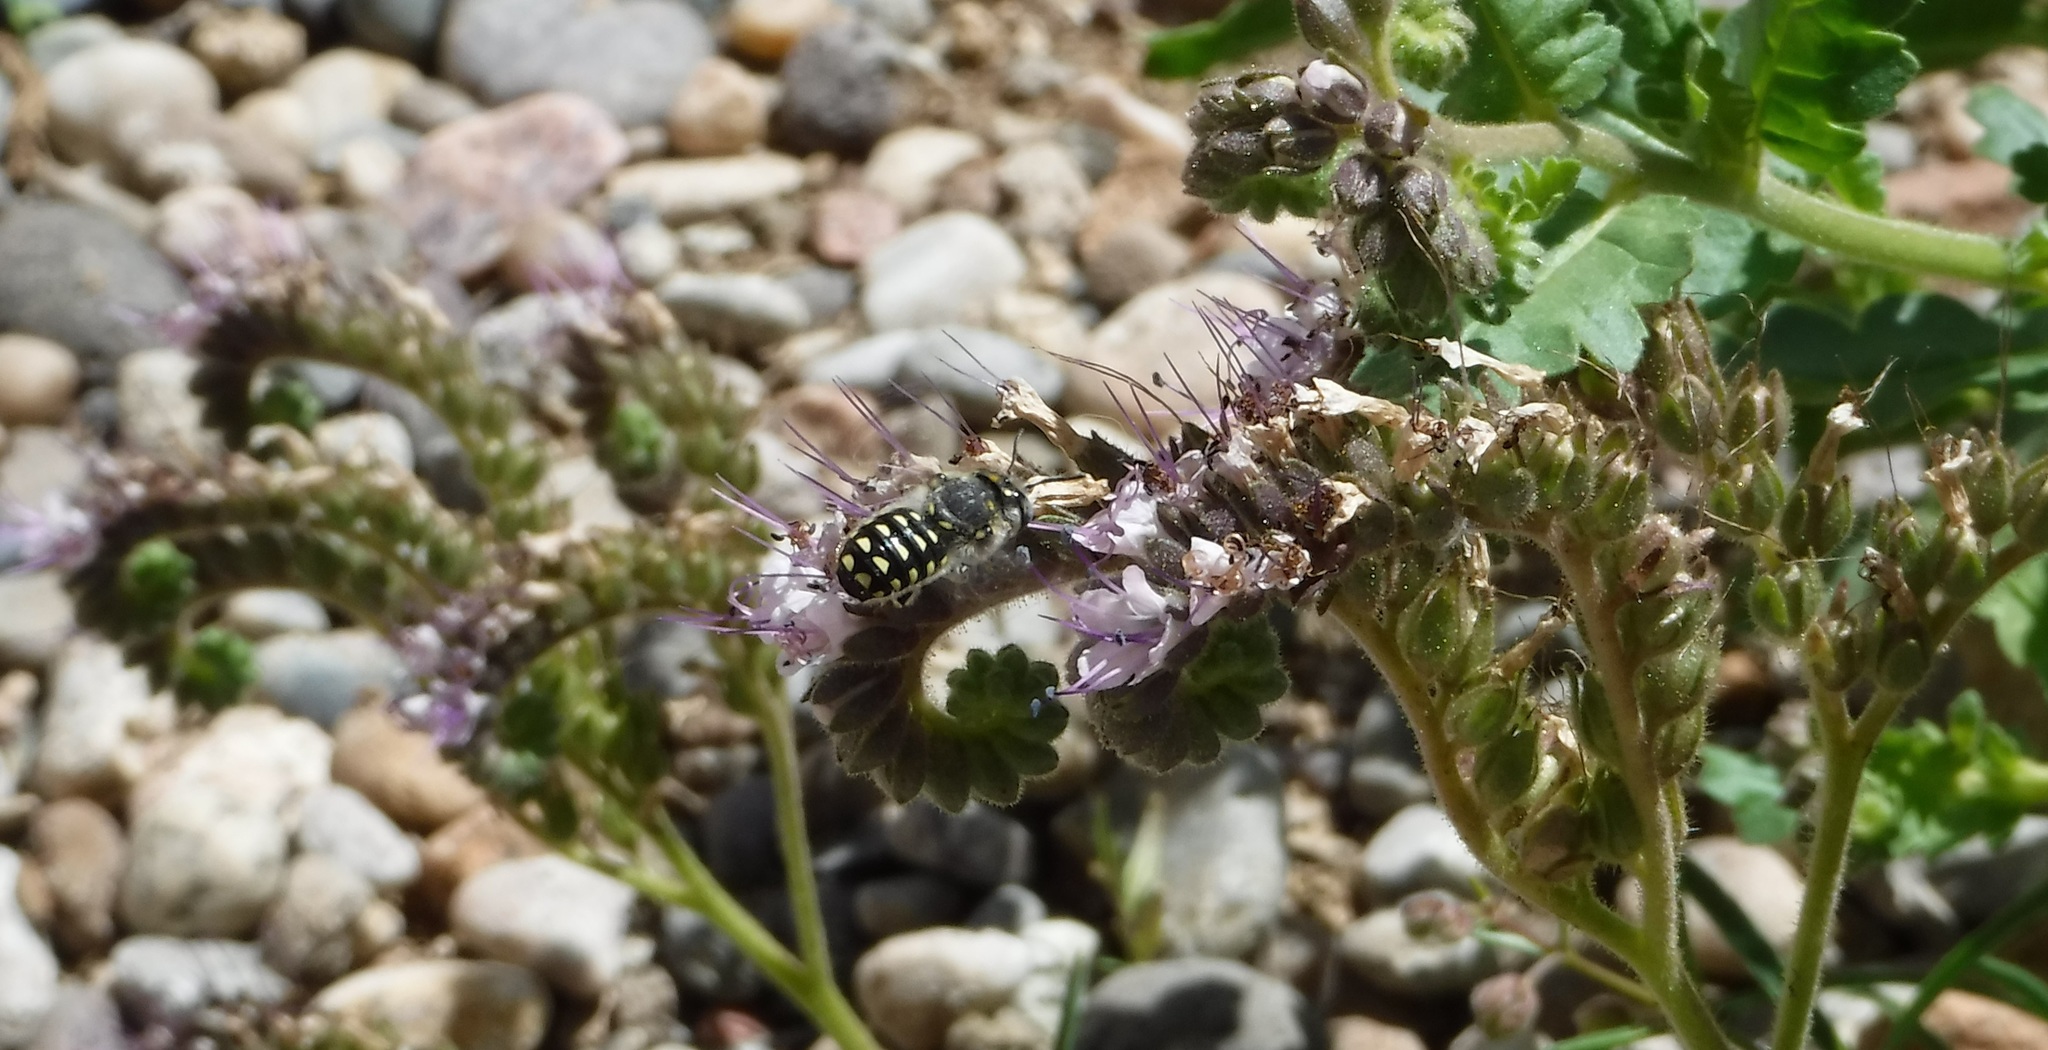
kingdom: Animalia
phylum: Arthropoda
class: Insecta
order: Hymenoptera
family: Megachilidae
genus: Anthidium
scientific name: Anthidium maculosum
